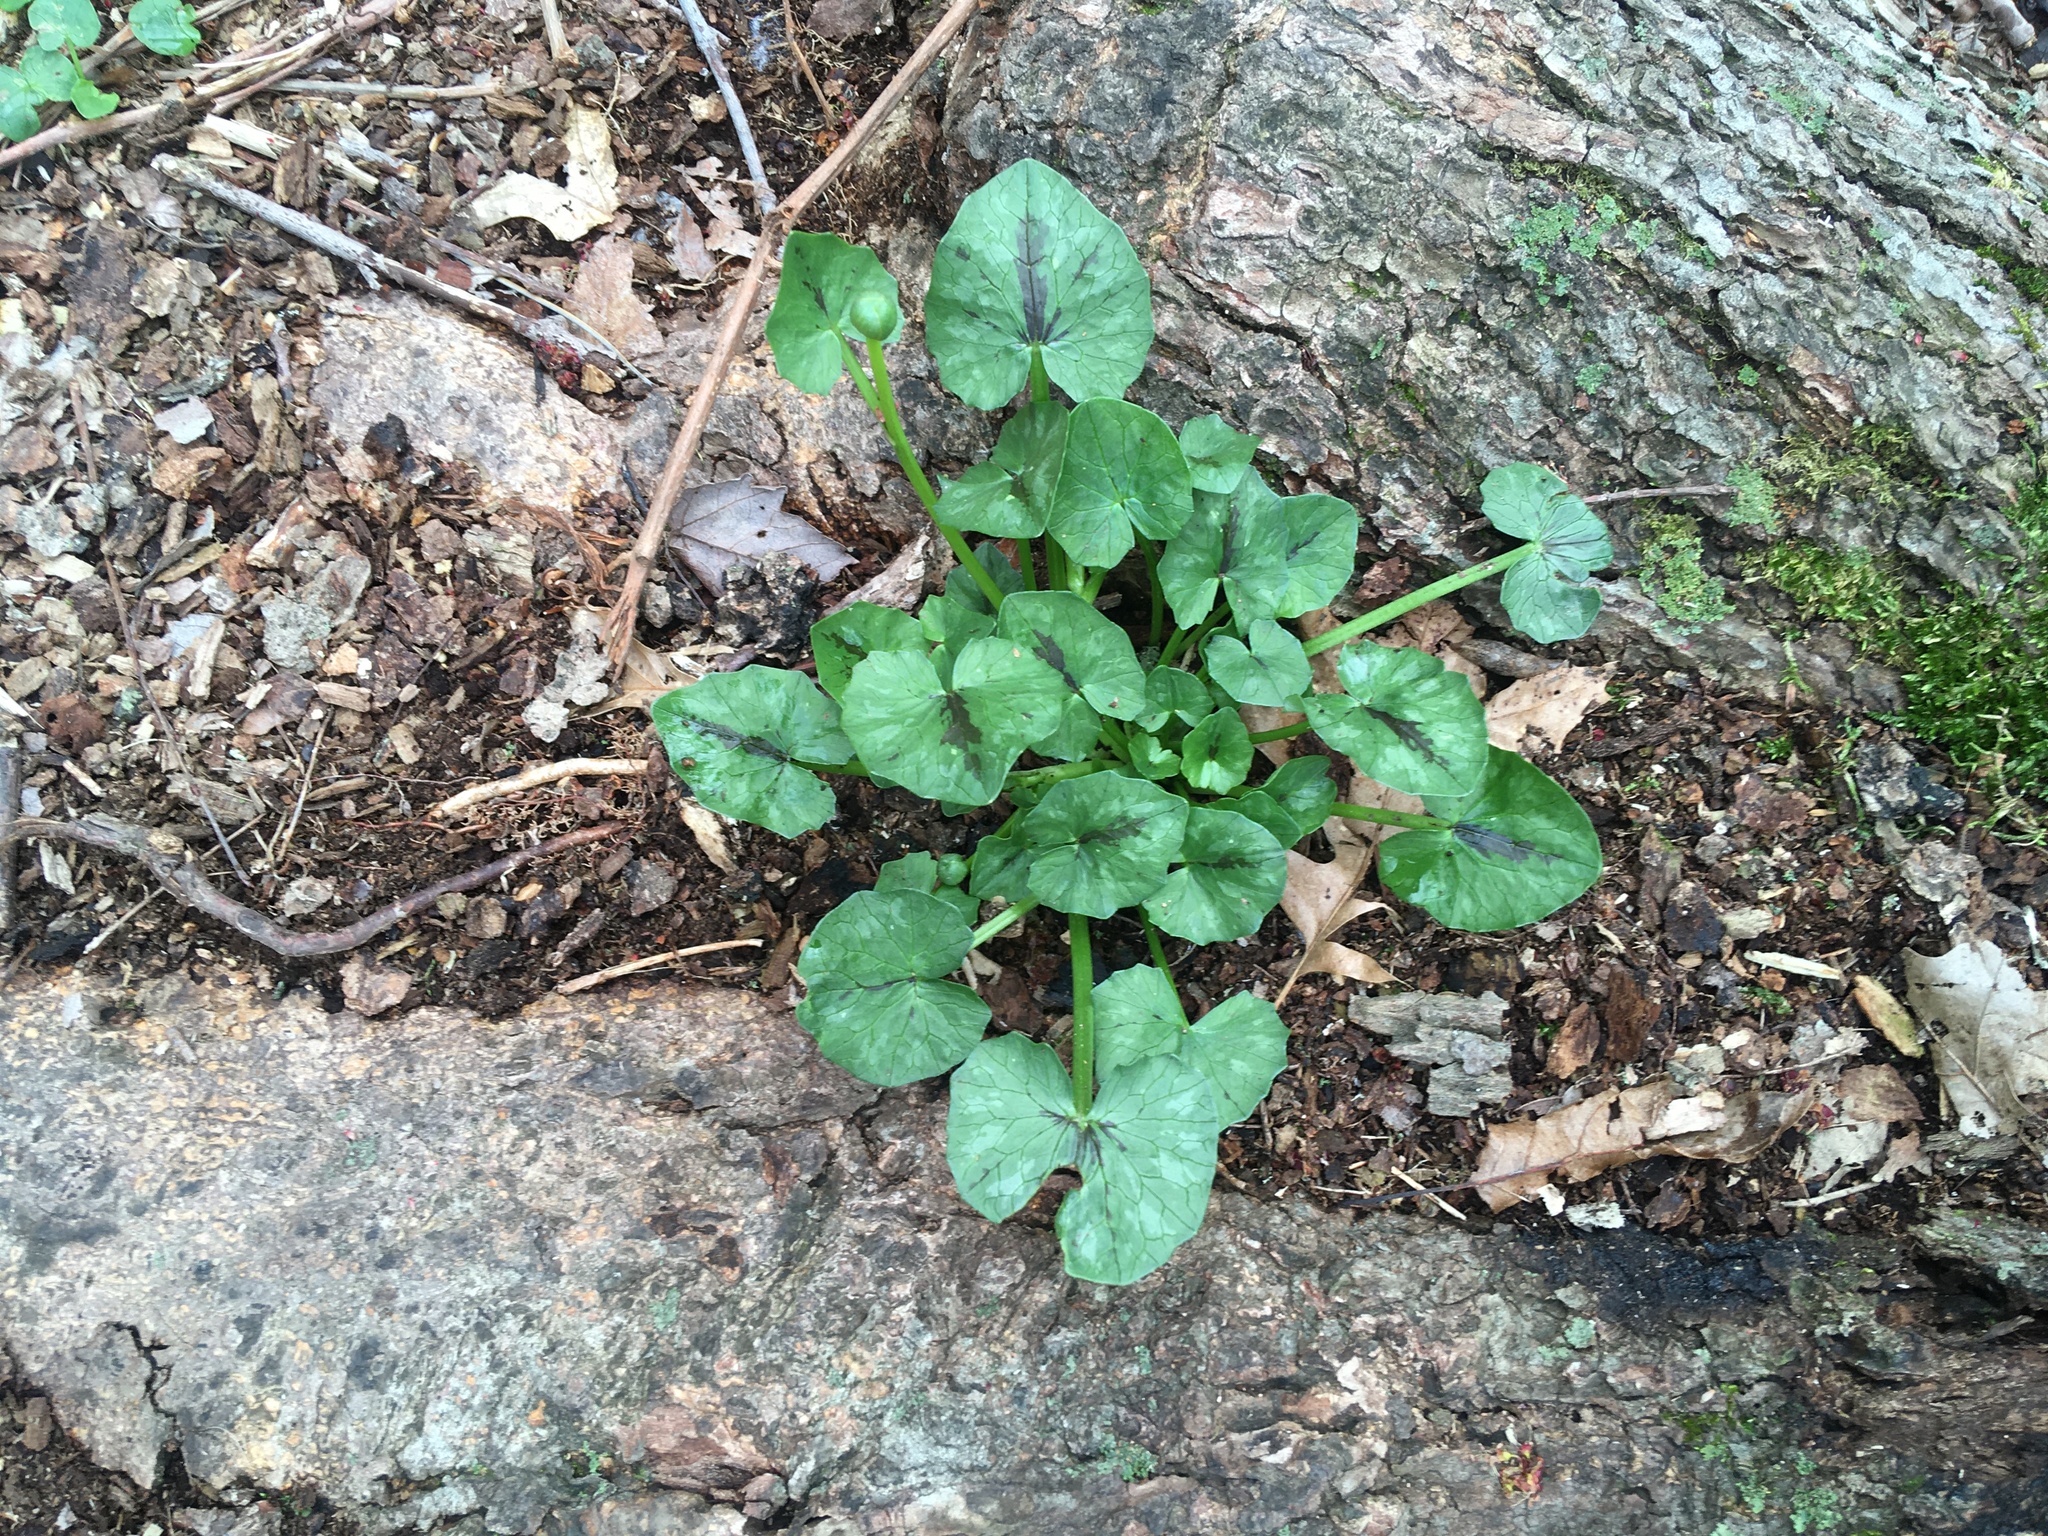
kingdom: Plantae
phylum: Tracheophyta
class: Magnoliopsida
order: Ranunculales
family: Ranunculaceae
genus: Ficaria
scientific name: Ficaria verna
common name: Lesser celandine
